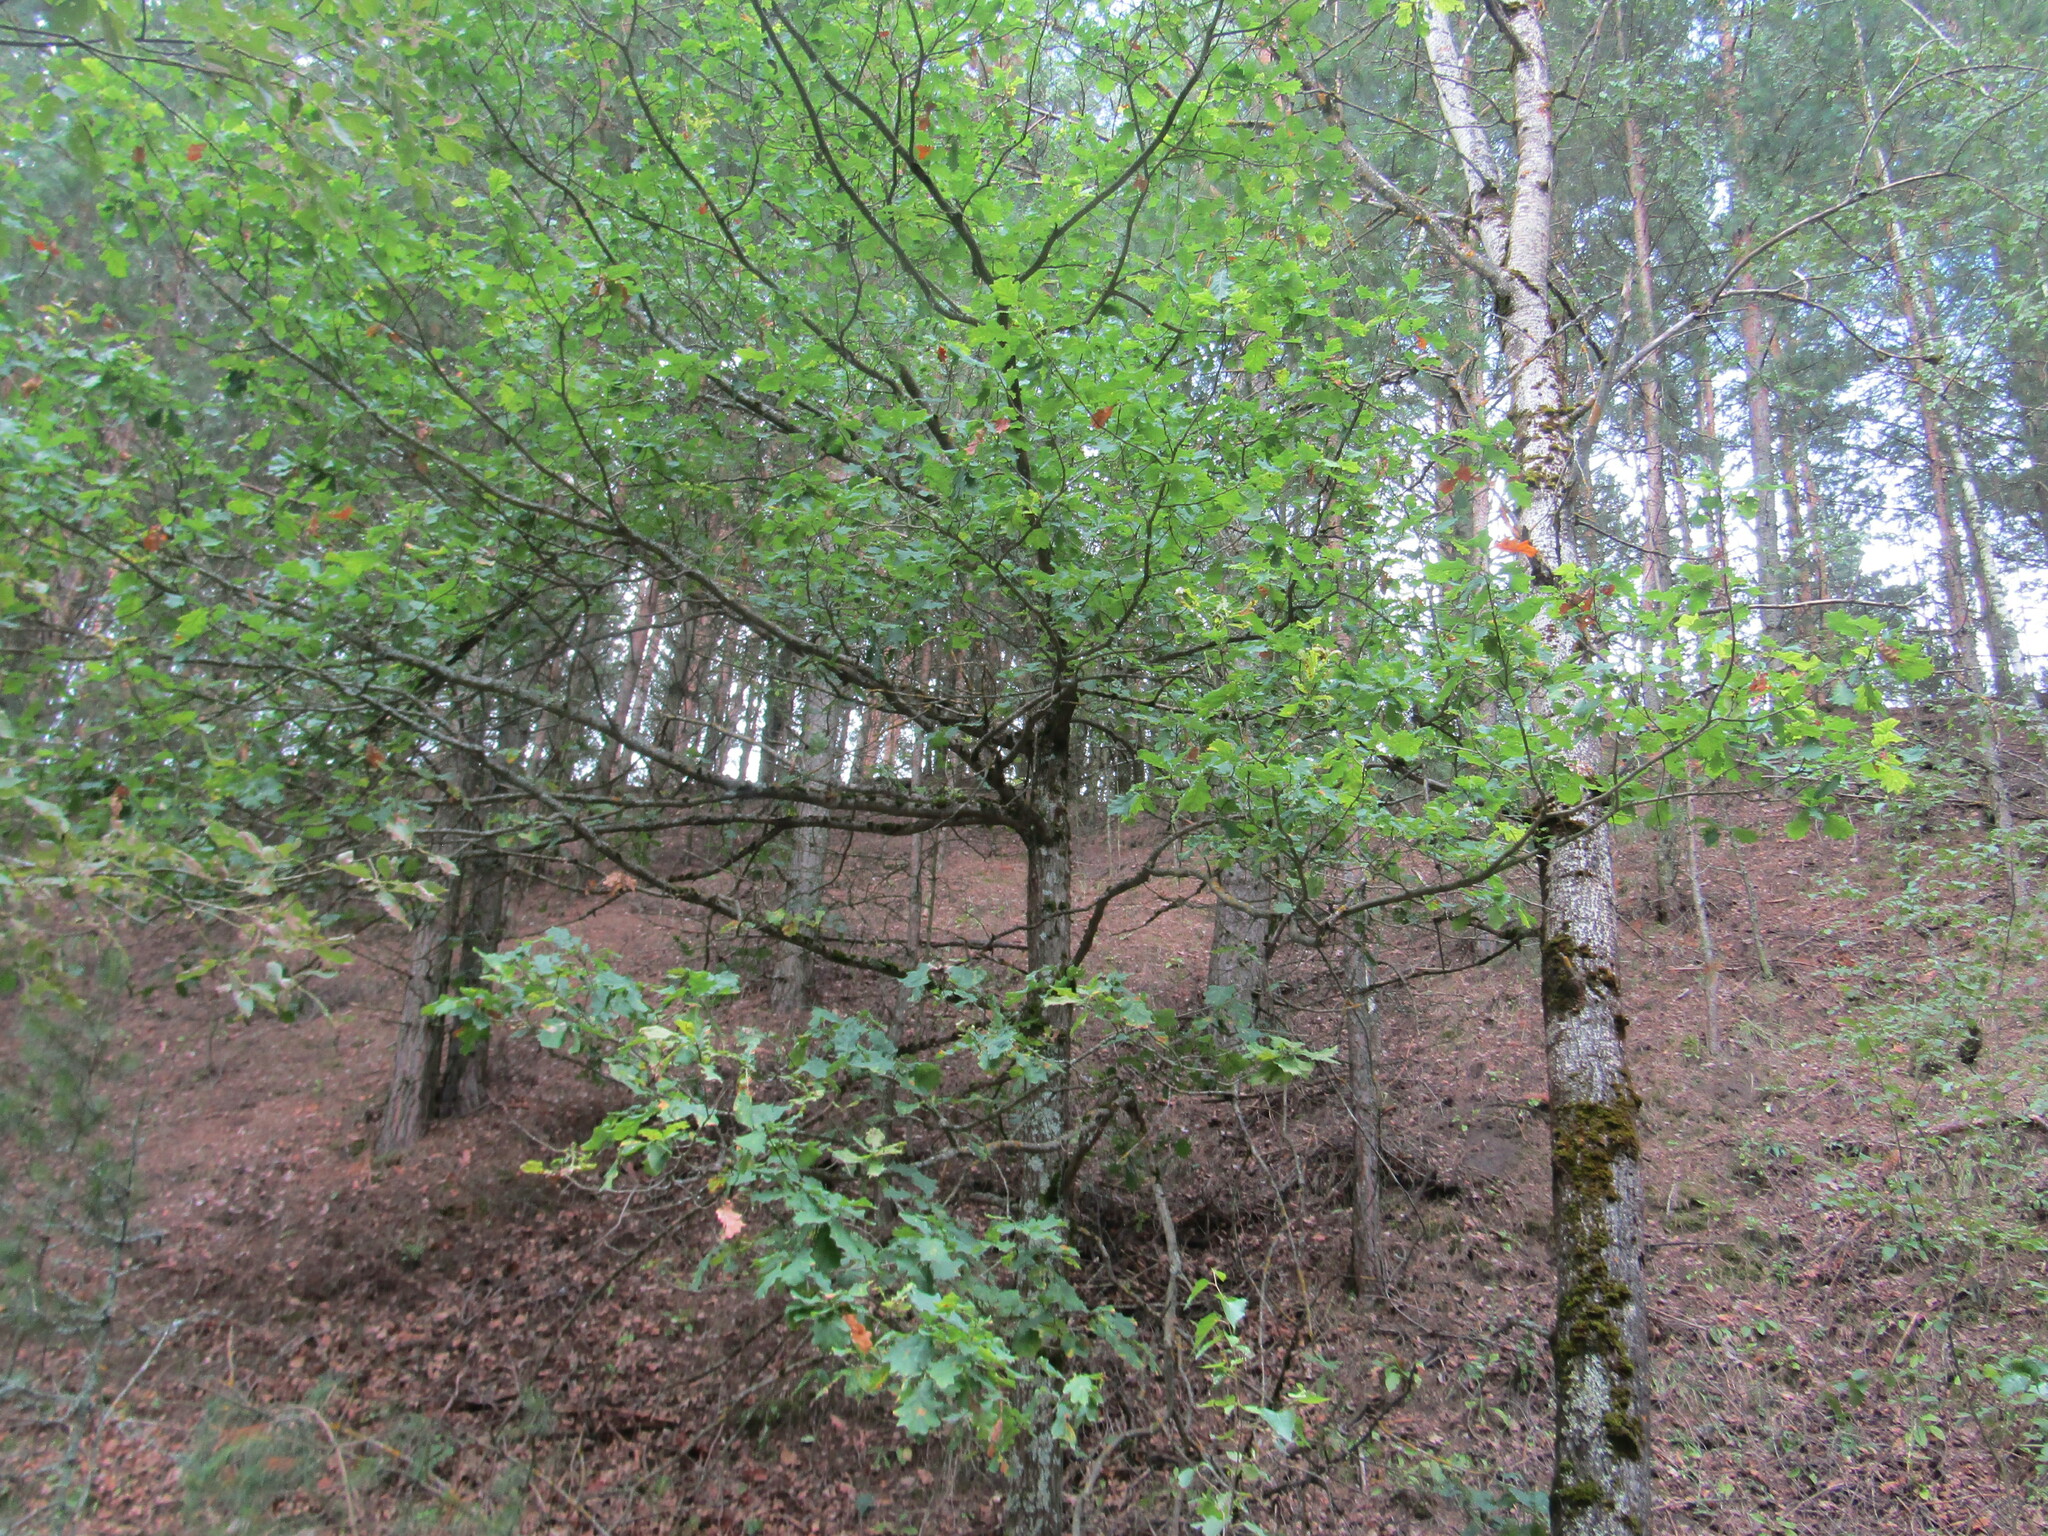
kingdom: Plantae
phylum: Tracheophyta
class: Magnoliopsida
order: Fagales
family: Fagaceae
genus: Quercus
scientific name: Quercus robur
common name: Pedunculate oak
